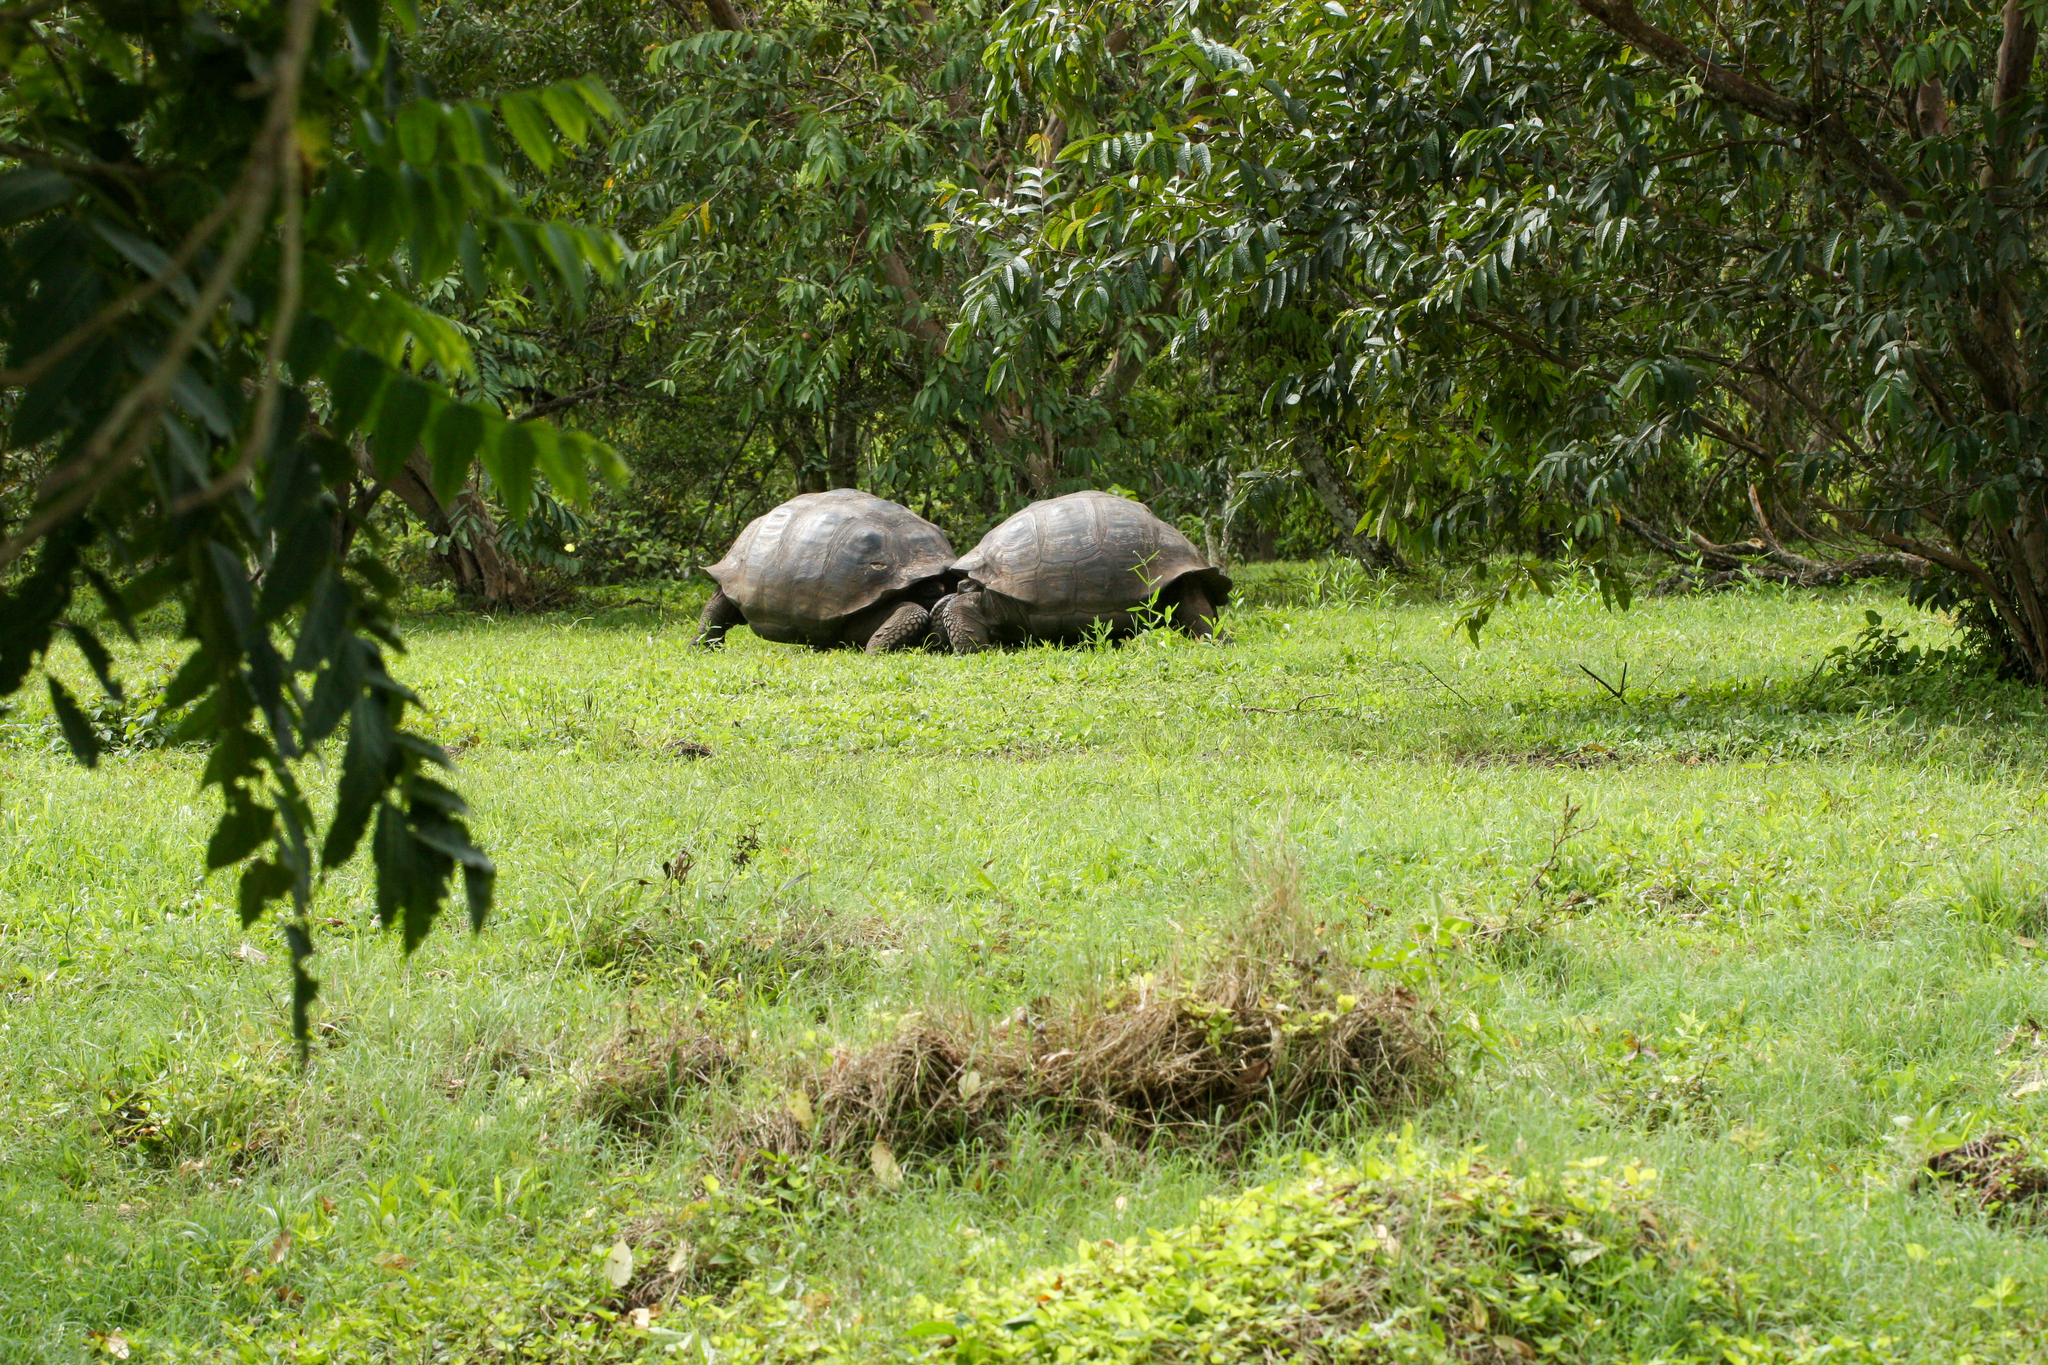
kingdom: Animalia
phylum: Chordata
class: Testudines
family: Testudinidae
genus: Chelonoidis
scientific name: Chelonoidis porteri
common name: Indefatigable island giant tortoise
